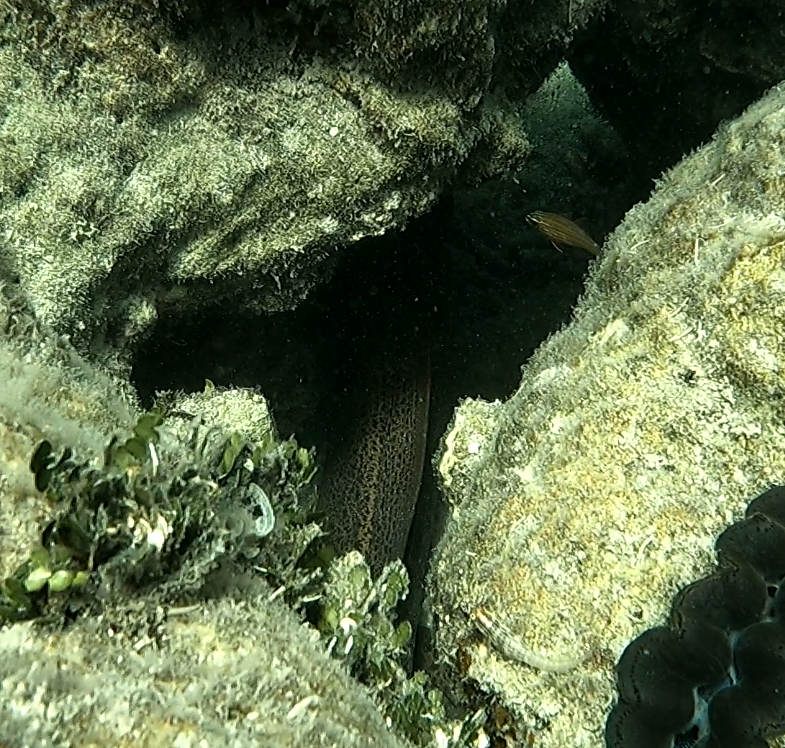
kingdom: Animalia
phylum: Chordata
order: Anguilliformes
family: Muraenidae
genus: Gymnothorax
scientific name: Gymnothorax javanicus
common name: Giant moray
